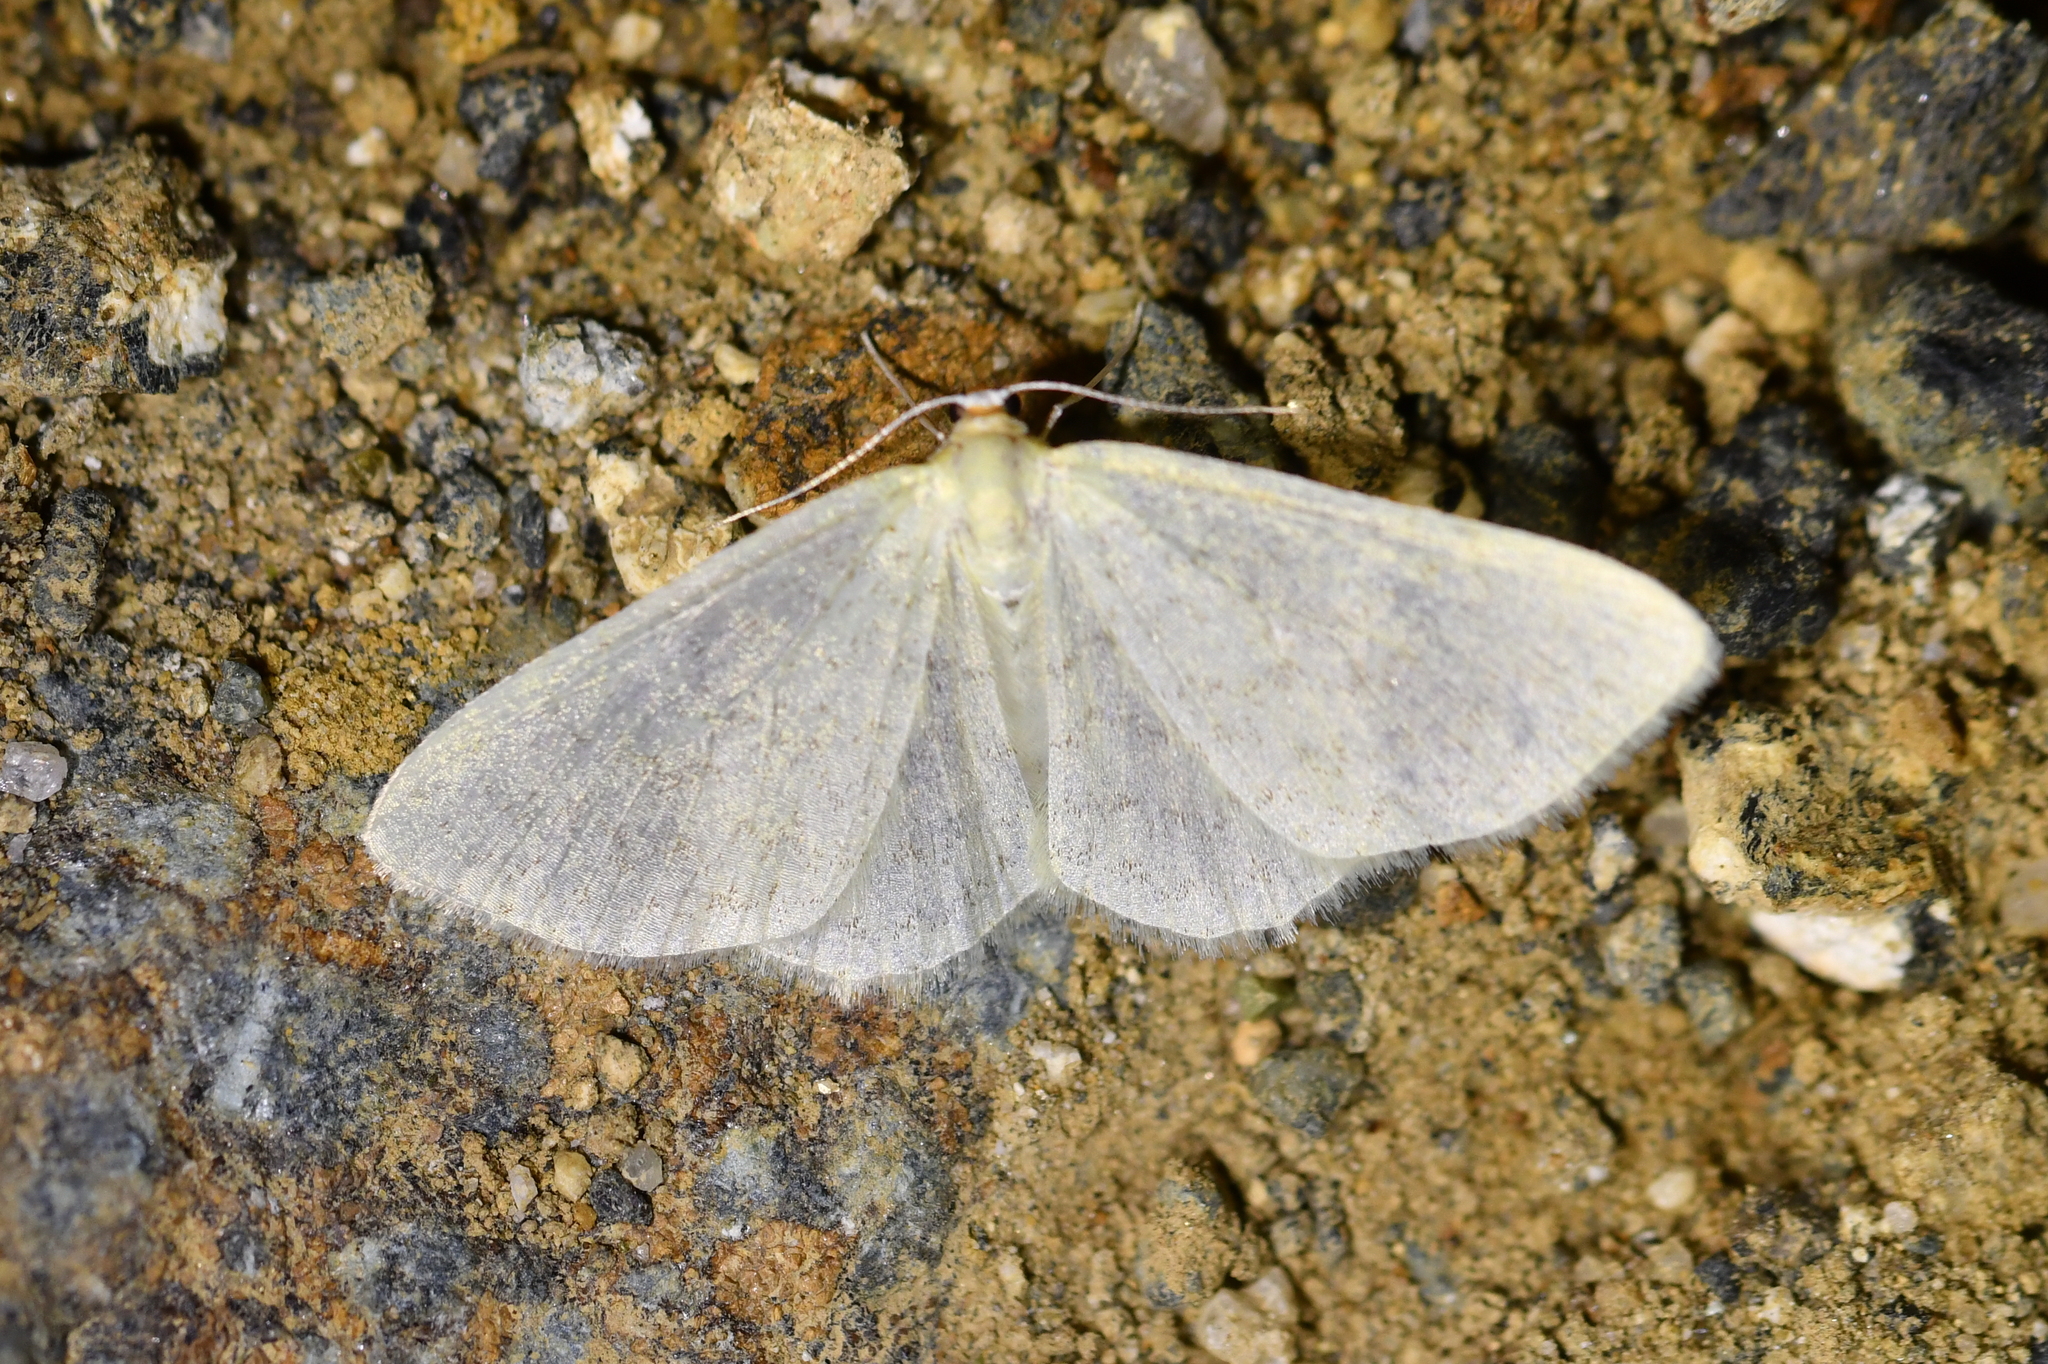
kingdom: Animalia
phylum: Arthropoda
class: Insecta
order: Lepidoptera
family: Geometridae
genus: Epiphryne
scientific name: Epiphryne undosata
